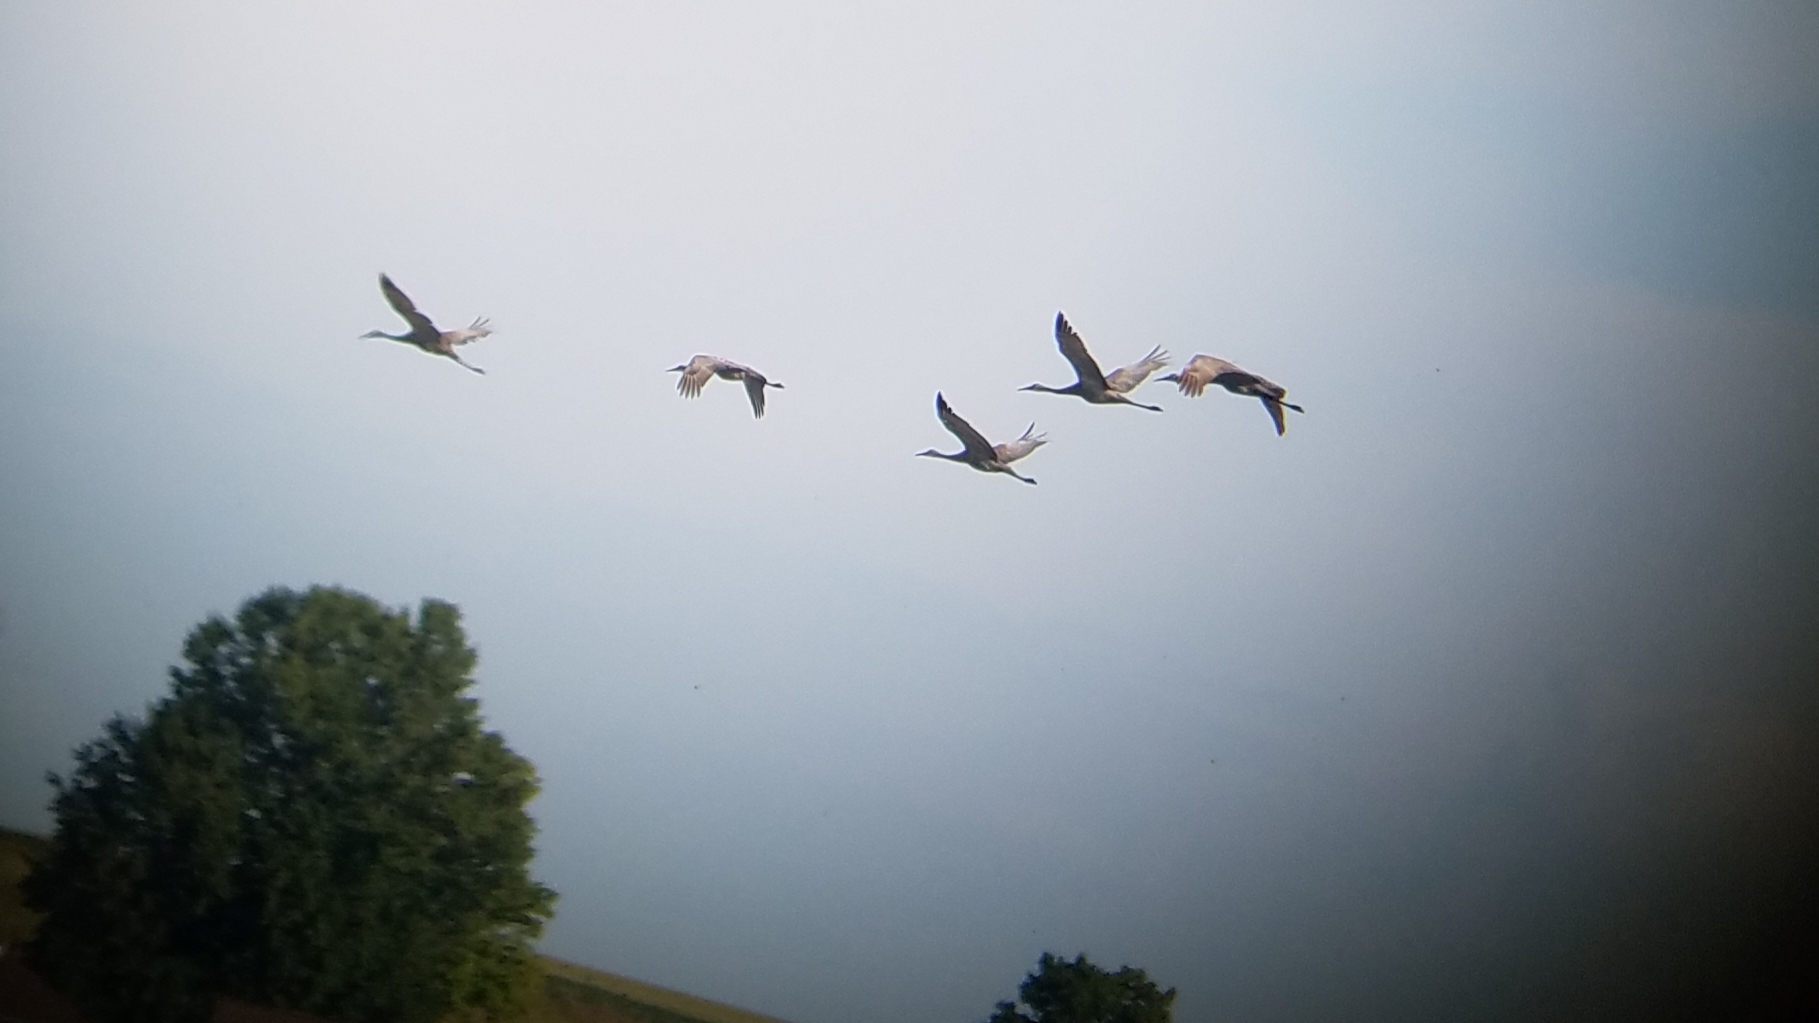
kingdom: Animalia
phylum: Chordata
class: Aves
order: Gruiformes
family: Gruidae
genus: Grus
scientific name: Grus canadensis
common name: Sandhill crane
